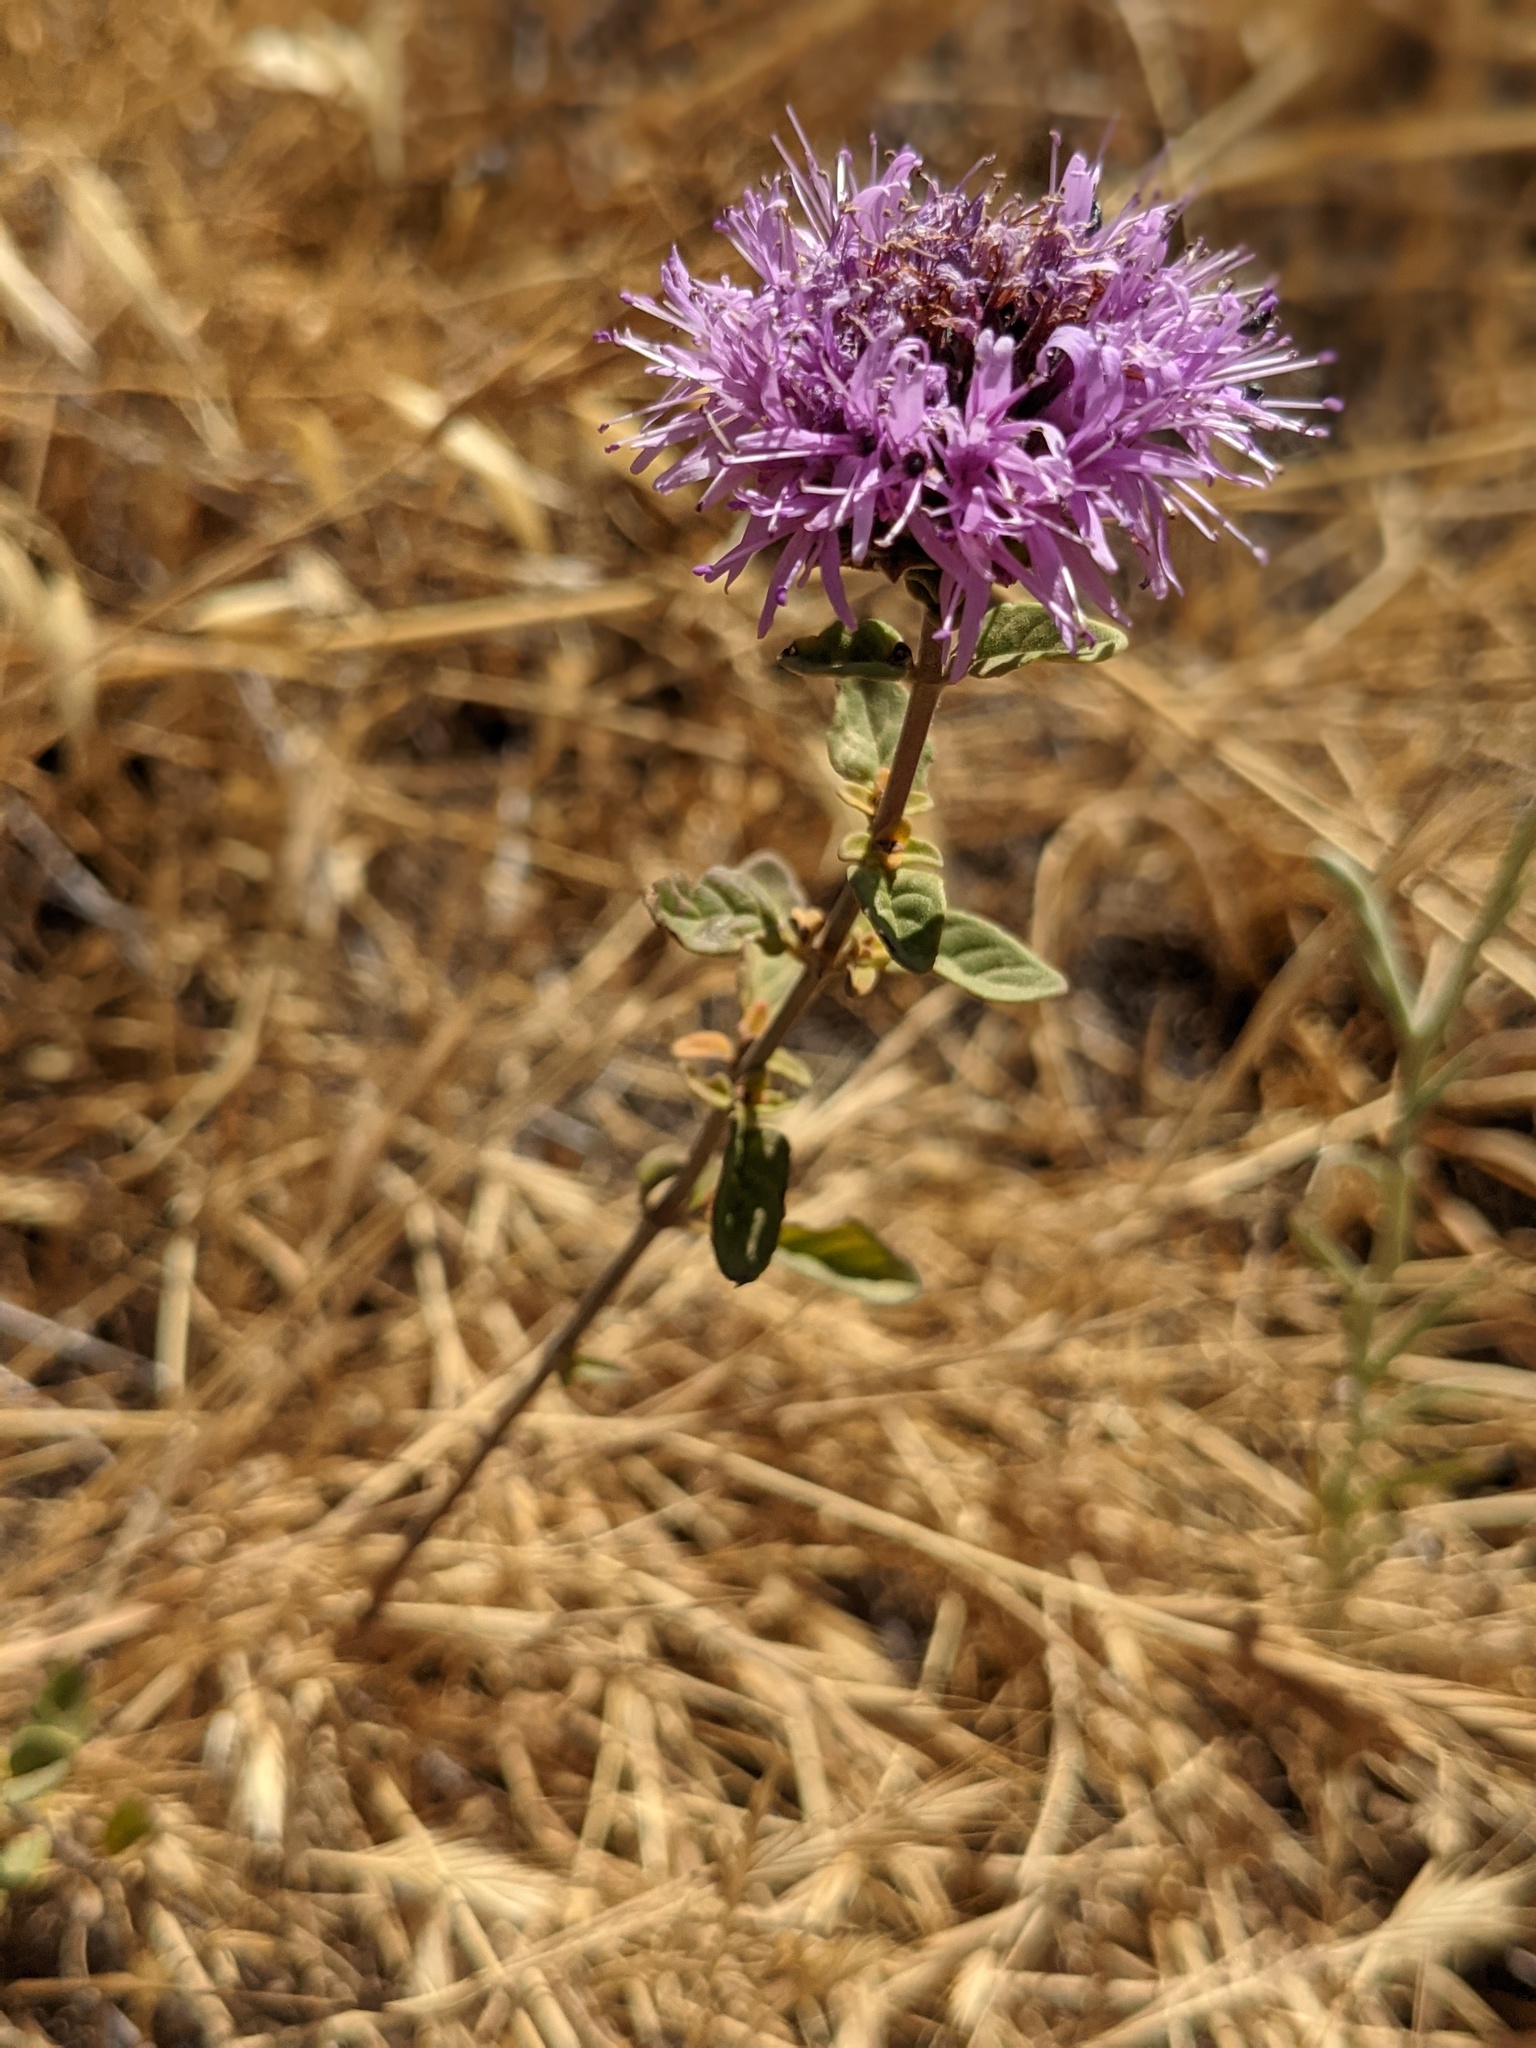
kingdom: Plantae
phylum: Tracheophyta
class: Magnoliopsida
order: Lamiales
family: Lamiaceae
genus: Monardella
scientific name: Monardella odoratissima
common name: Pacific monardella
